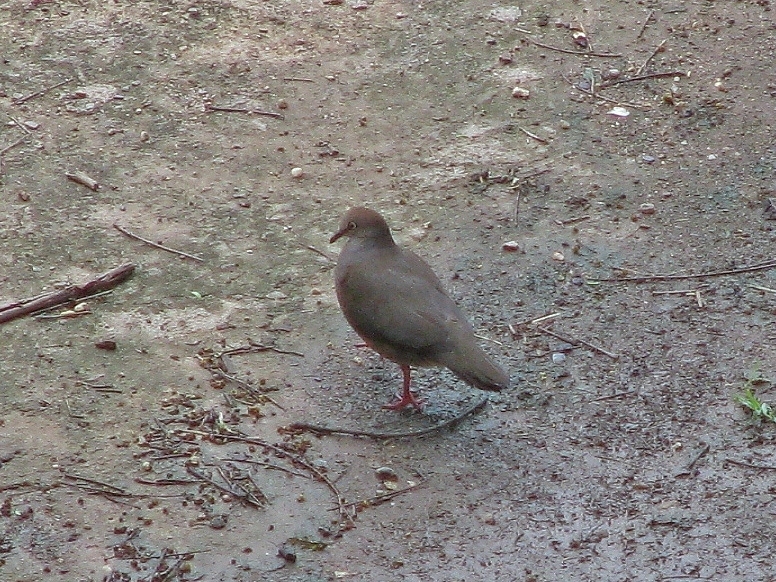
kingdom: Animalia
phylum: Chordata
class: Aves
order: Columbiformes
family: Columbidae
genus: Leptotila
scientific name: Leptotila cassinii
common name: Grey-chested dove
